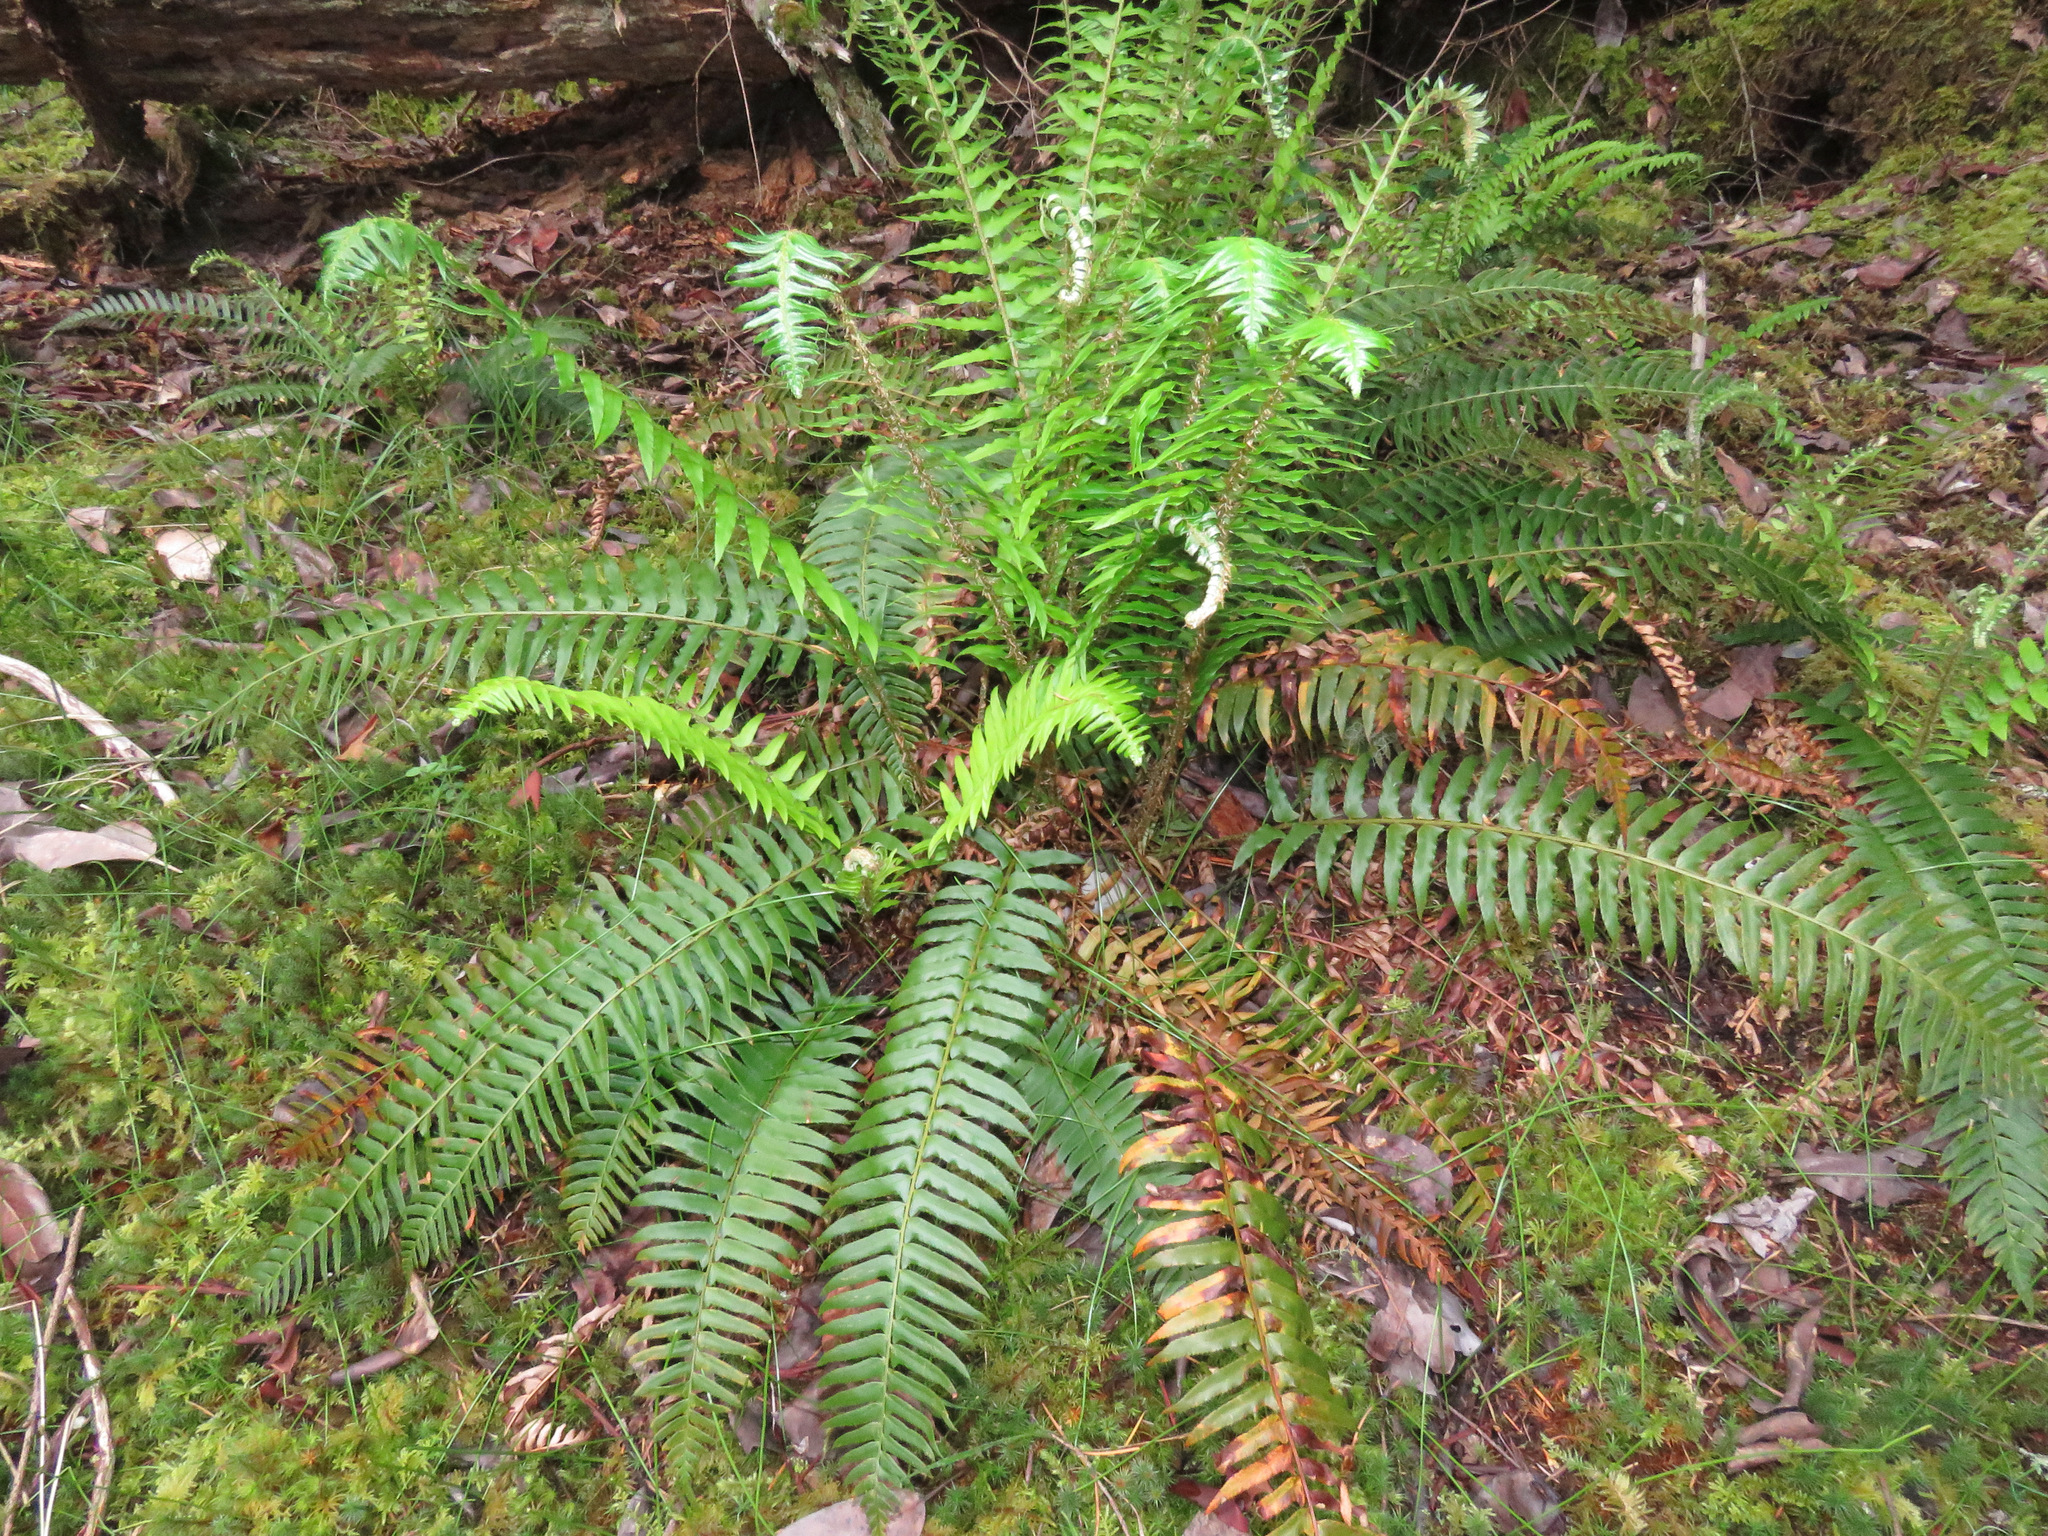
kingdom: Plantae
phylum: Tracheophyta
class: Polypodiopsida
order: Polypodiales
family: Dryopteridaceae
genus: Polystichum
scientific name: Polystichum munitum
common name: Western sword-fern
